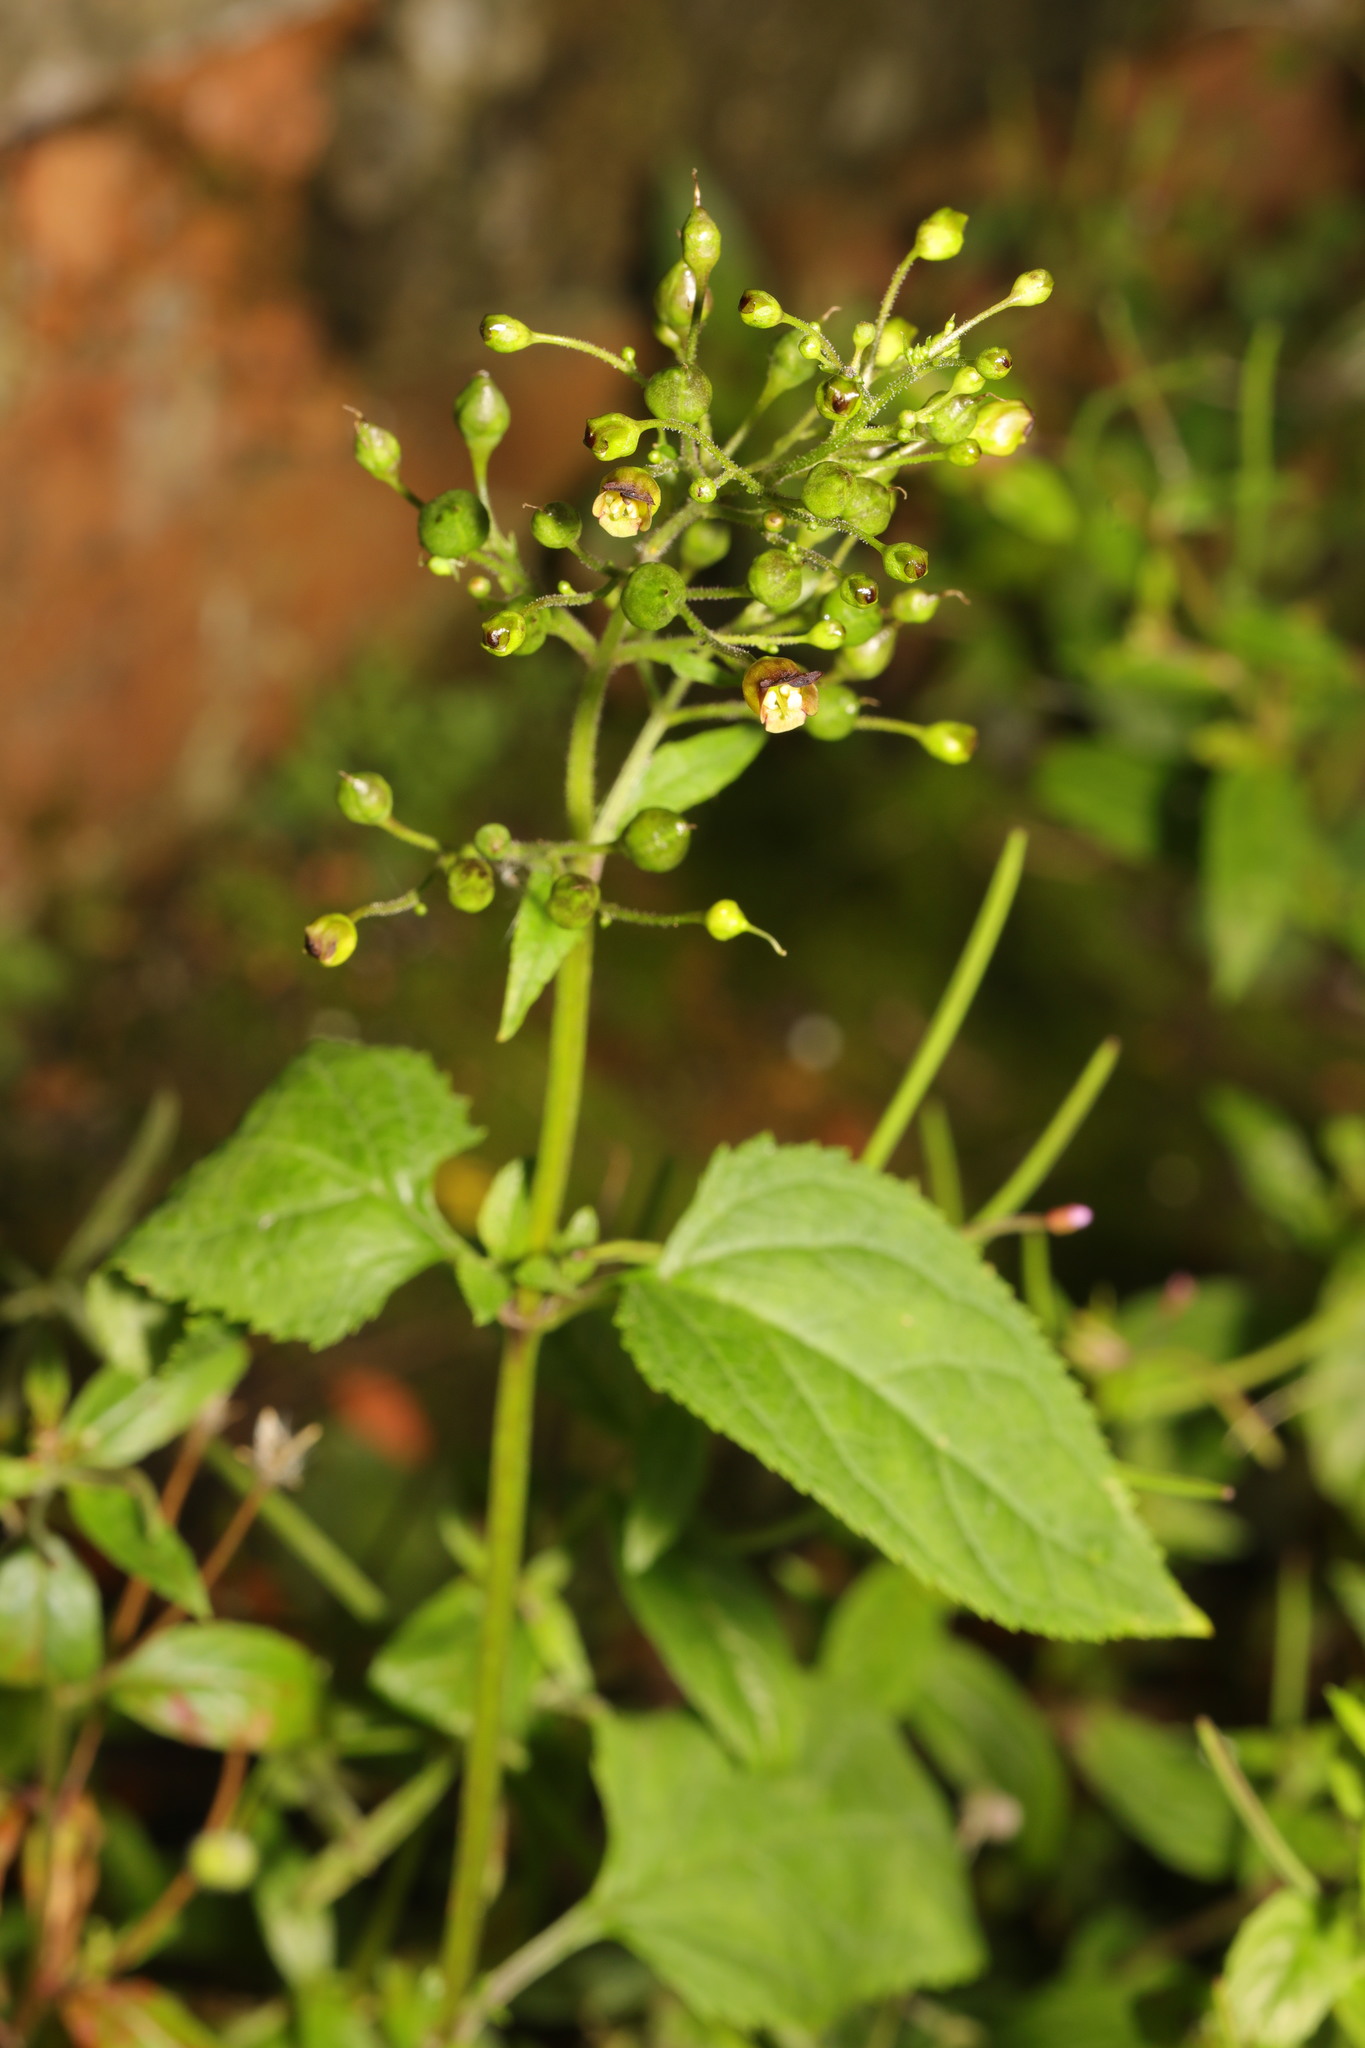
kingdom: Plantae
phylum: Tracheophyta
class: Magnoliopsida
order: Lamiales
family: Scrophulariaceae
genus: Scrophularia
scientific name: Scrophularia nodosa
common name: Common figwort
